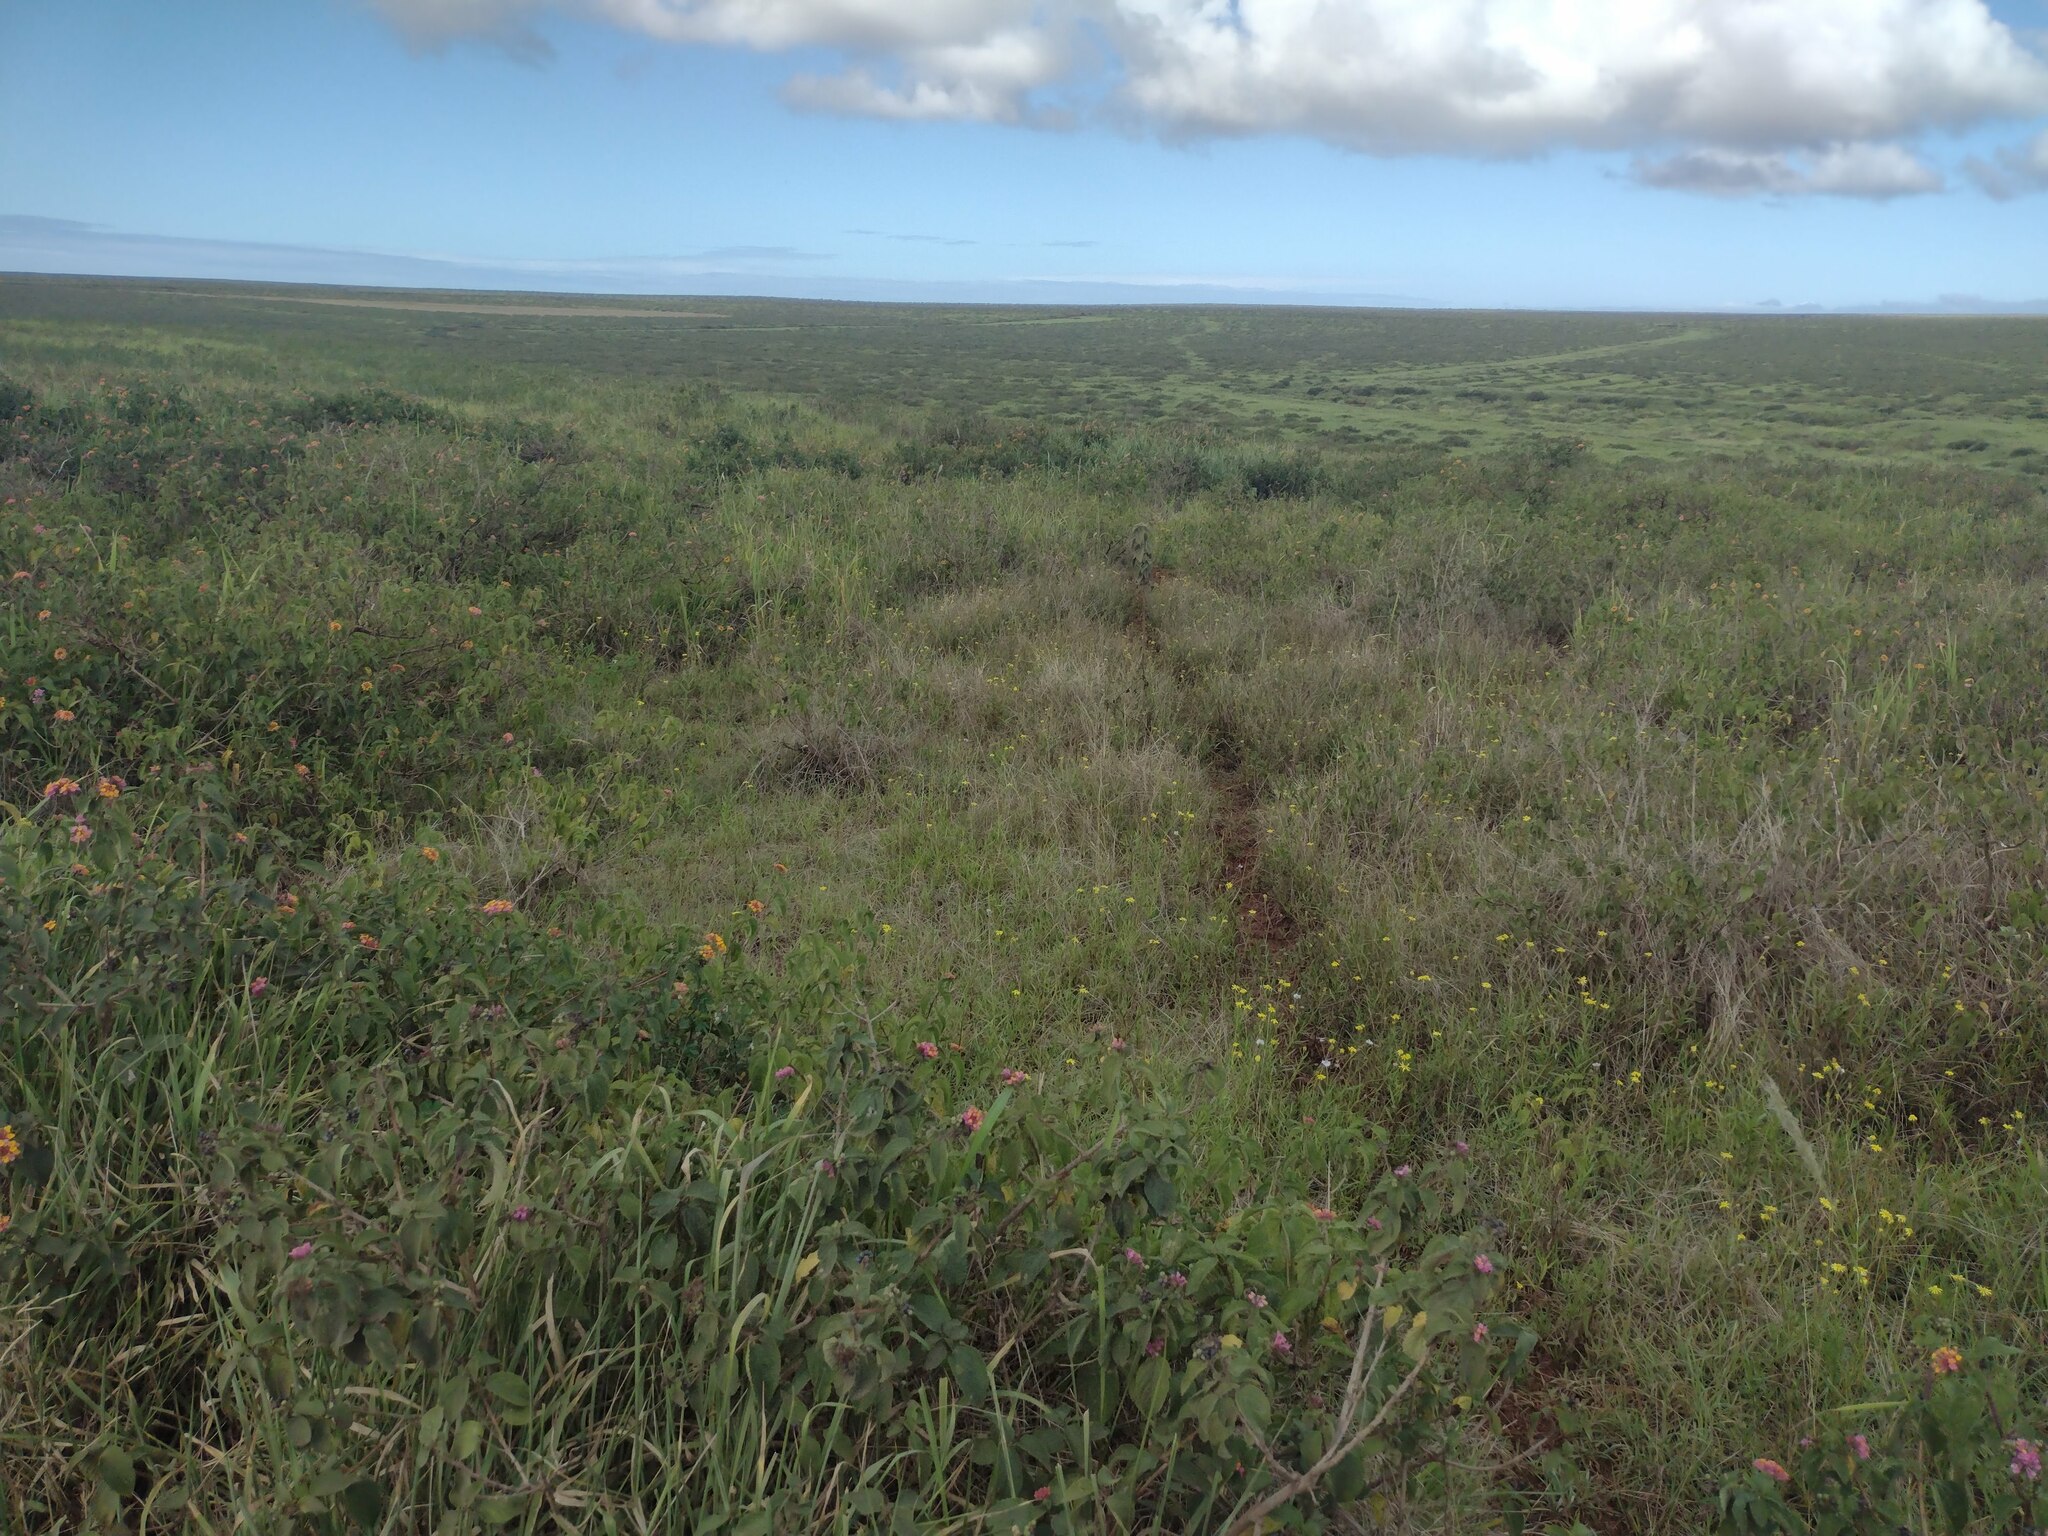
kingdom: Plantae
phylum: Tracheophyta
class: Magnoliopsida
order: Lamiales
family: Verbenaceae
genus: Lantana
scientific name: Lantana camara
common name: Lantana
